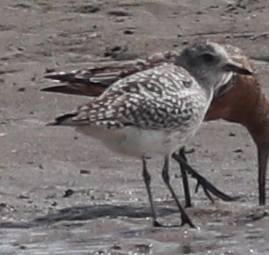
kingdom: Animalia
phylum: Chordata
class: Aves
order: Charadriiformes
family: Charadriidae
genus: Pluvialis
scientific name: Pluvialis squatarola
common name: Grey plover
